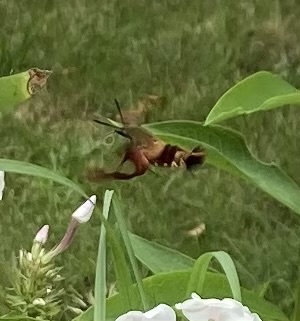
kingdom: Animalia
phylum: Arthropoda
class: Insecta
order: Lepidoptera
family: Sphingidae
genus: Hemaris
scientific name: Hemaris thysbe
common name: Common clear-wing
